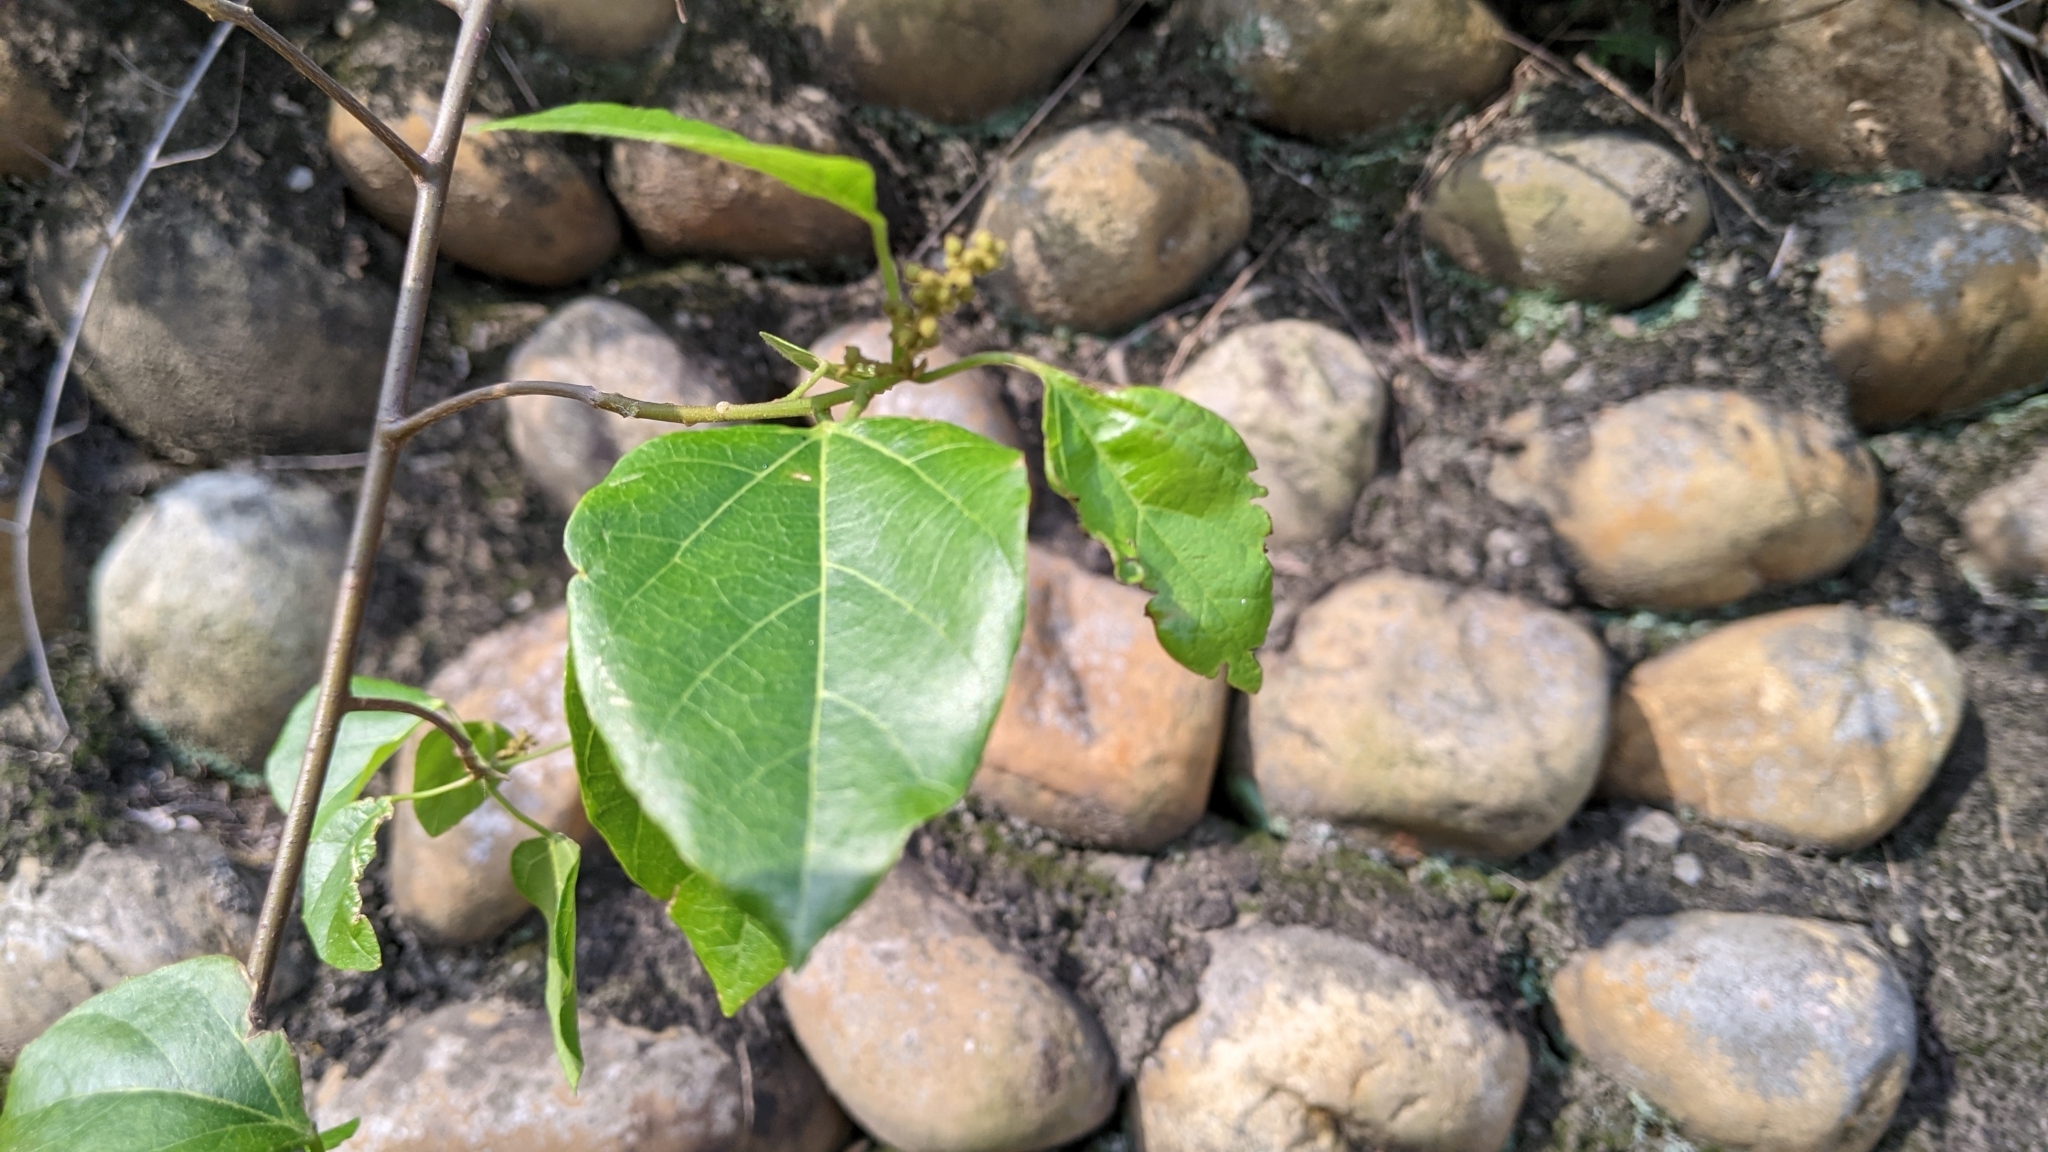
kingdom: Plantae
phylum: Tracheophyta
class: Magnoliopsida
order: Malpighiales
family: Euphorbiaceae
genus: Mallotus
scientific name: Mallotus repandus
